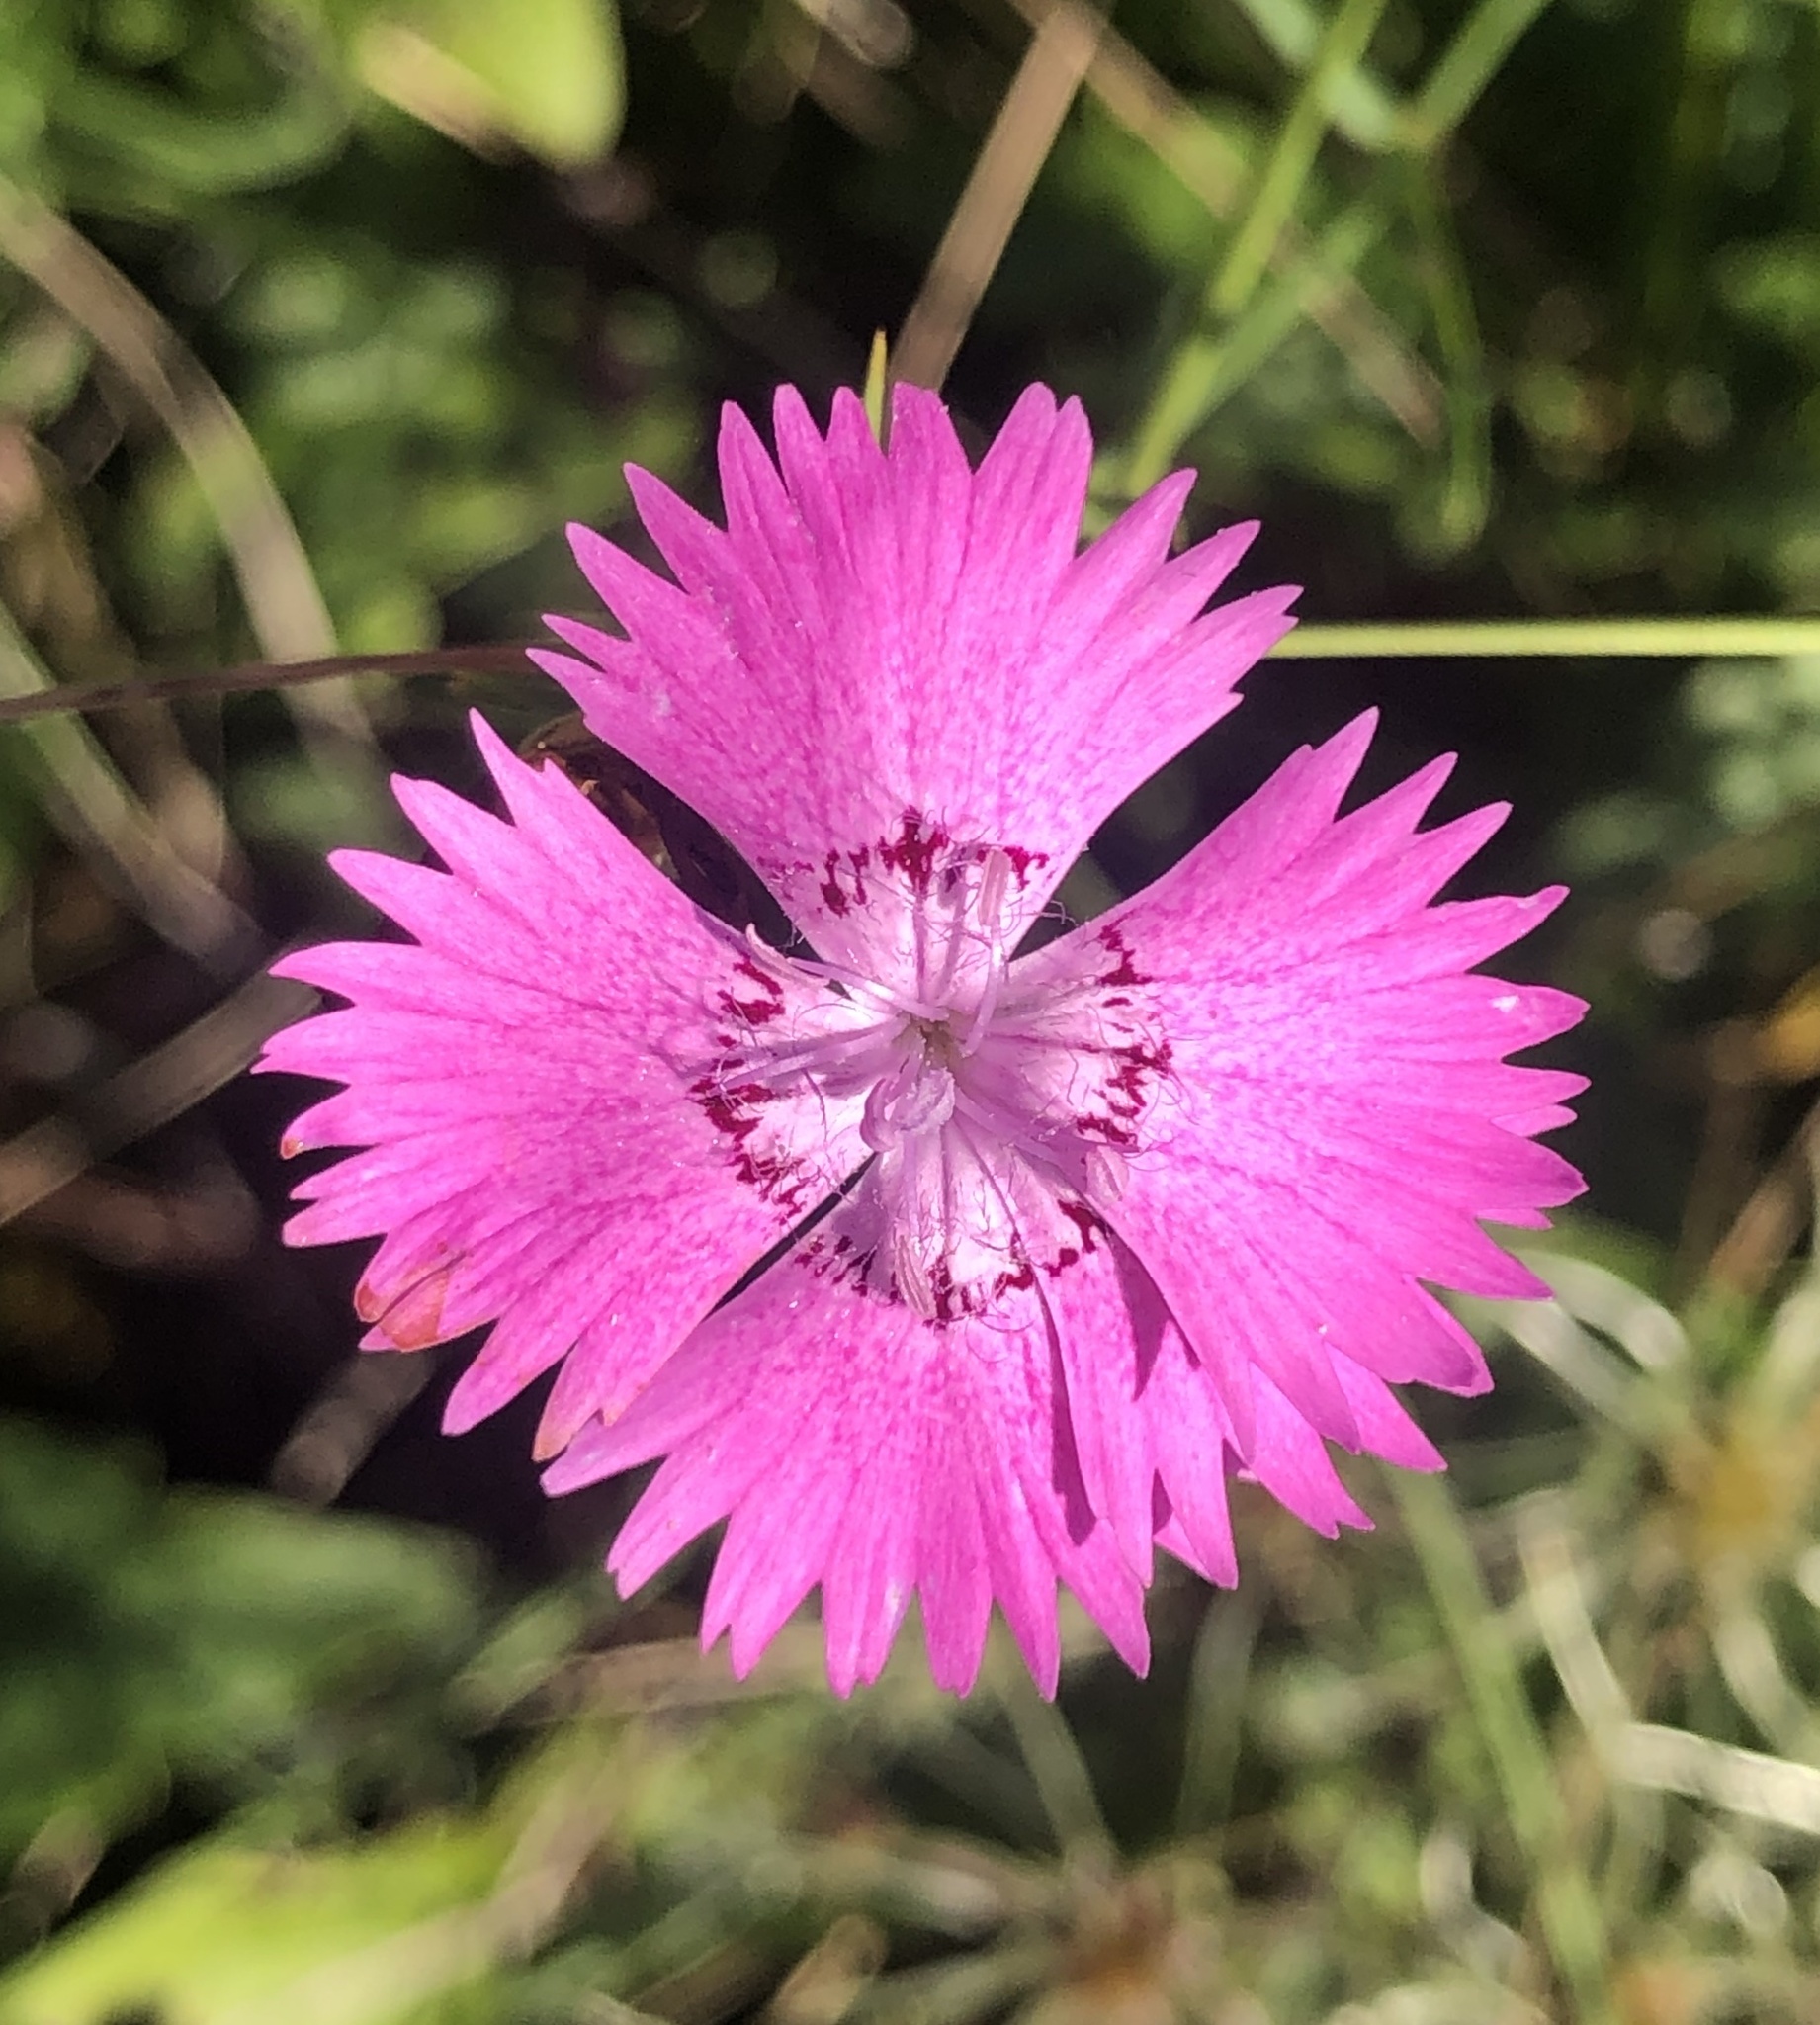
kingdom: Plantae
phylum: Tracheophyta
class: Magnoliopsida
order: Caryophyllales
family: Caryophyllaceae
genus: Dianthus
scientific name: Dianthus seguieri
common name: Ragged pink
